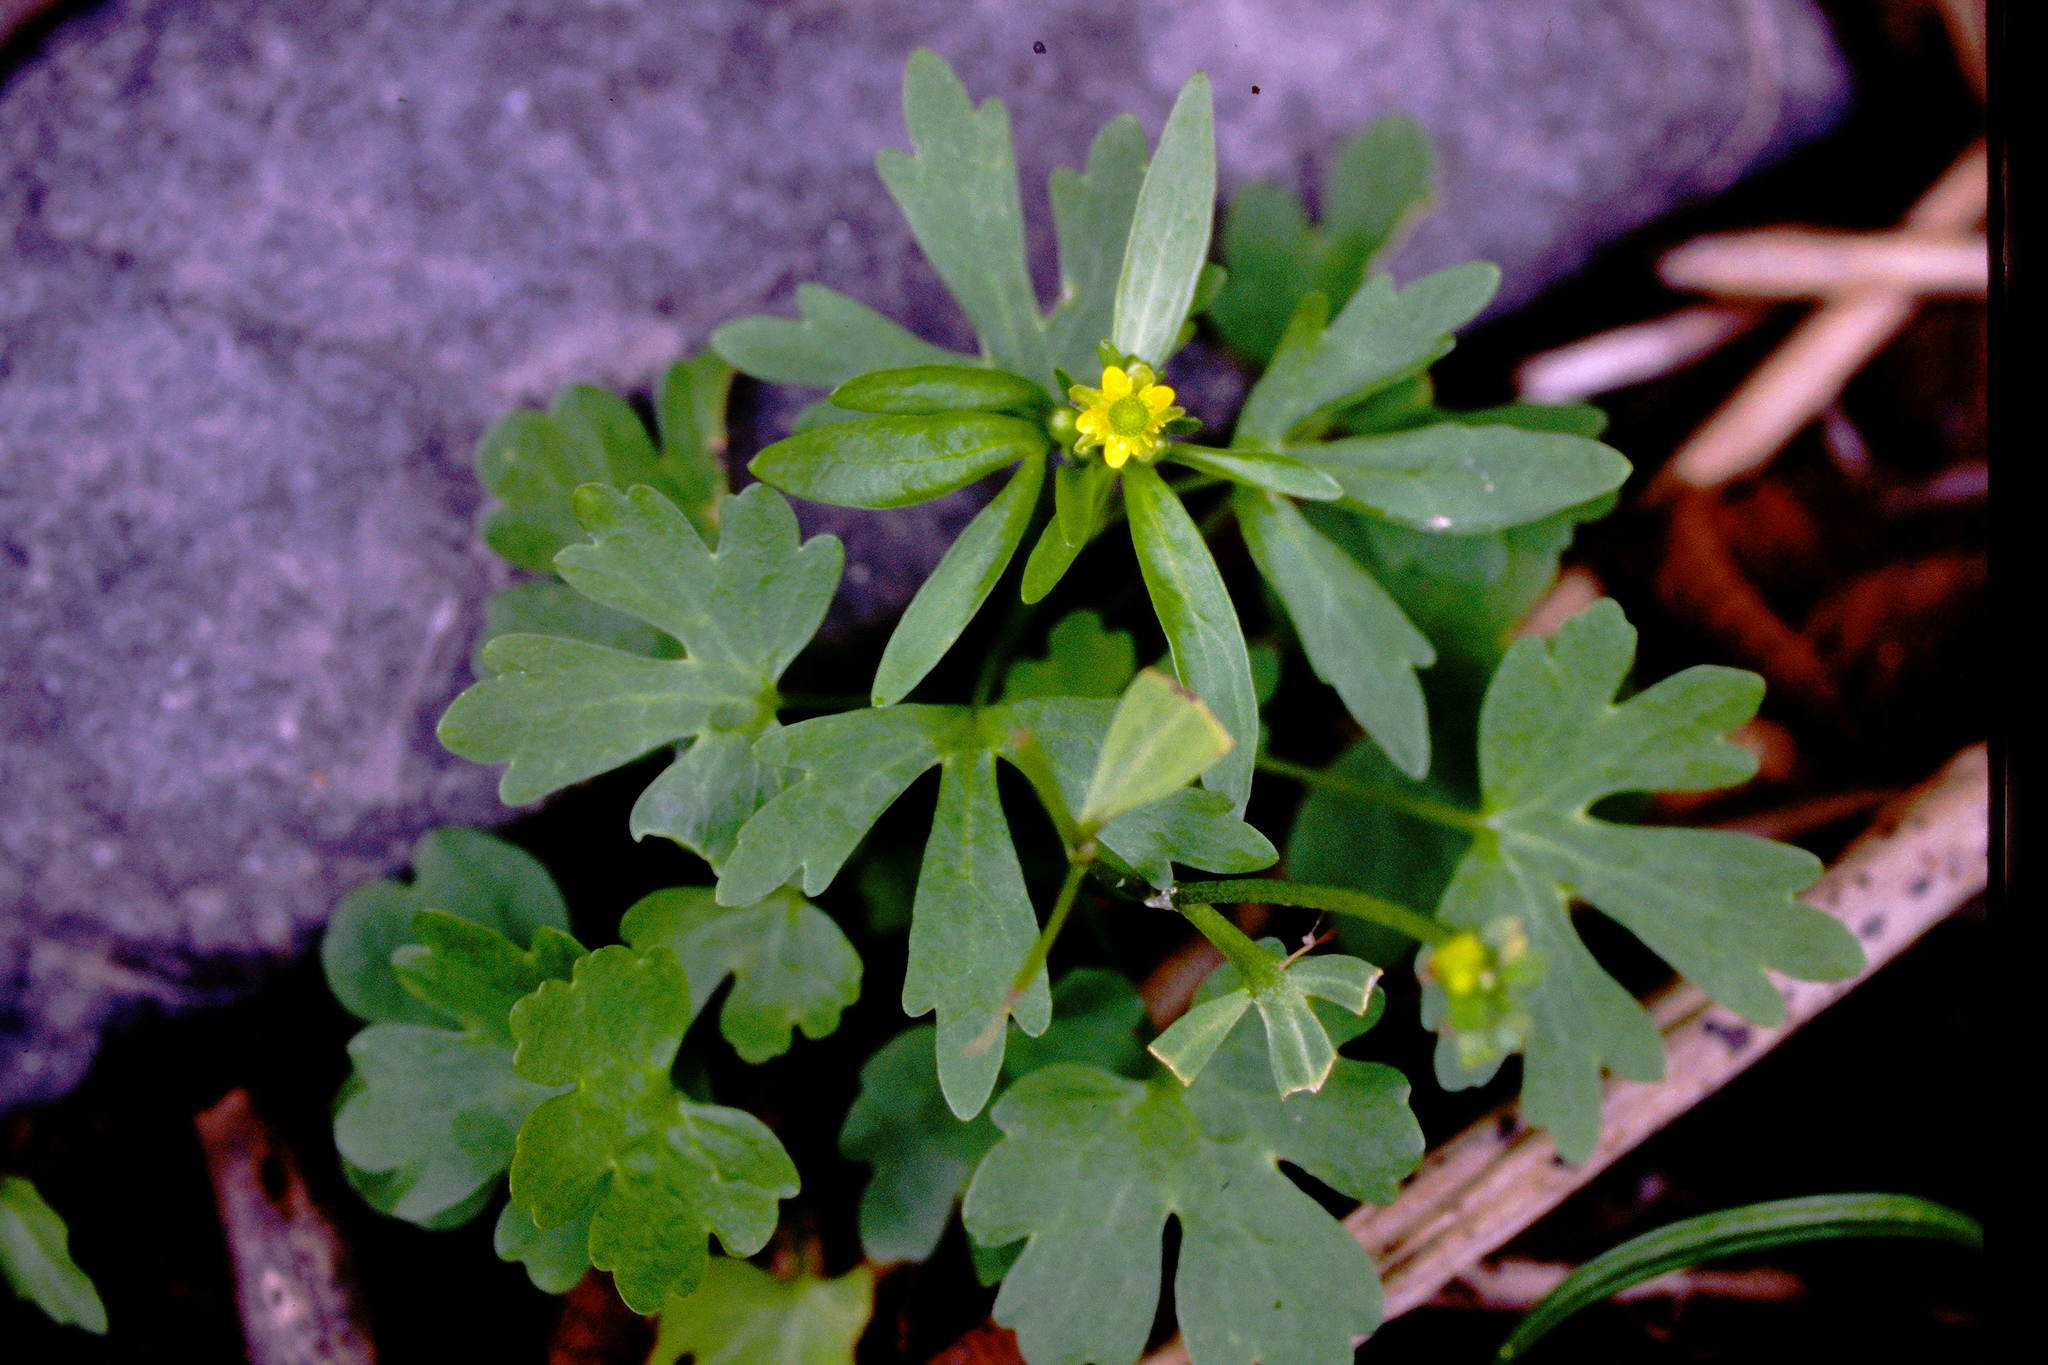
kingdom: Plantae
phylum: Tracheophyta
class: Magnoliopsida
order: Ranunculales
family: Ranunculaceae
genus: Ranunculus
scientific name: Ranunculus sceleratus
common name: Celery-leaved buttercup
